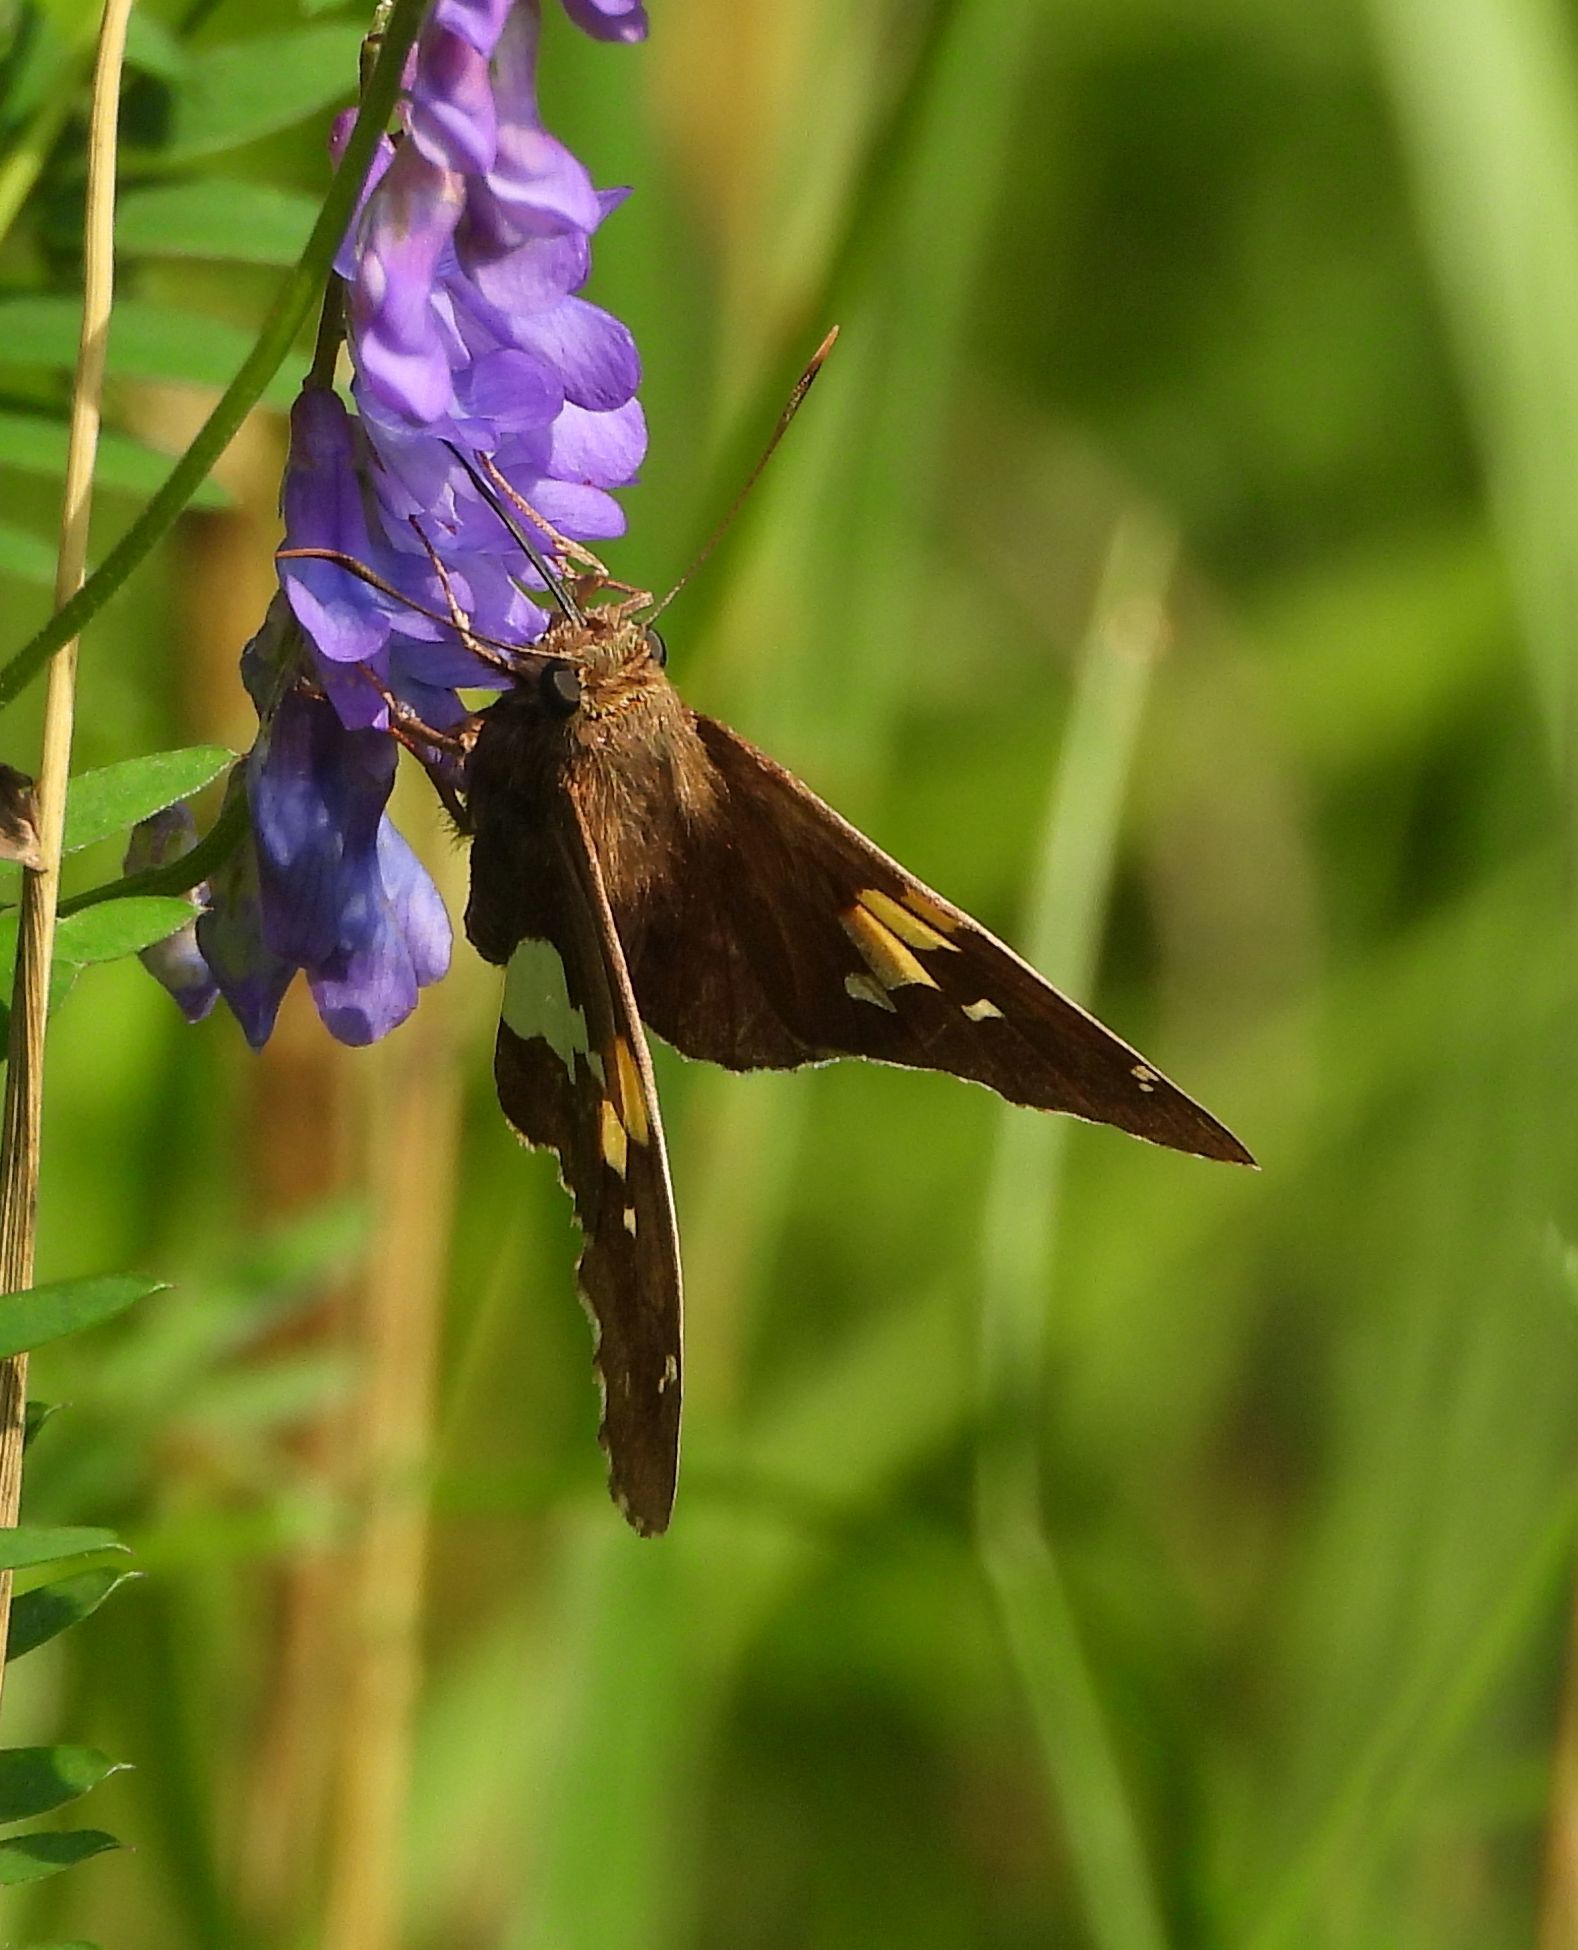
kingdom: Animalia
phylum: Arthropoda
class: Insecta
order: Lepidoptera
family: Hesperiidae
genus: Epargyreus
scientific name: Epargyreus clarus
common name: Silver-spotted skipper
